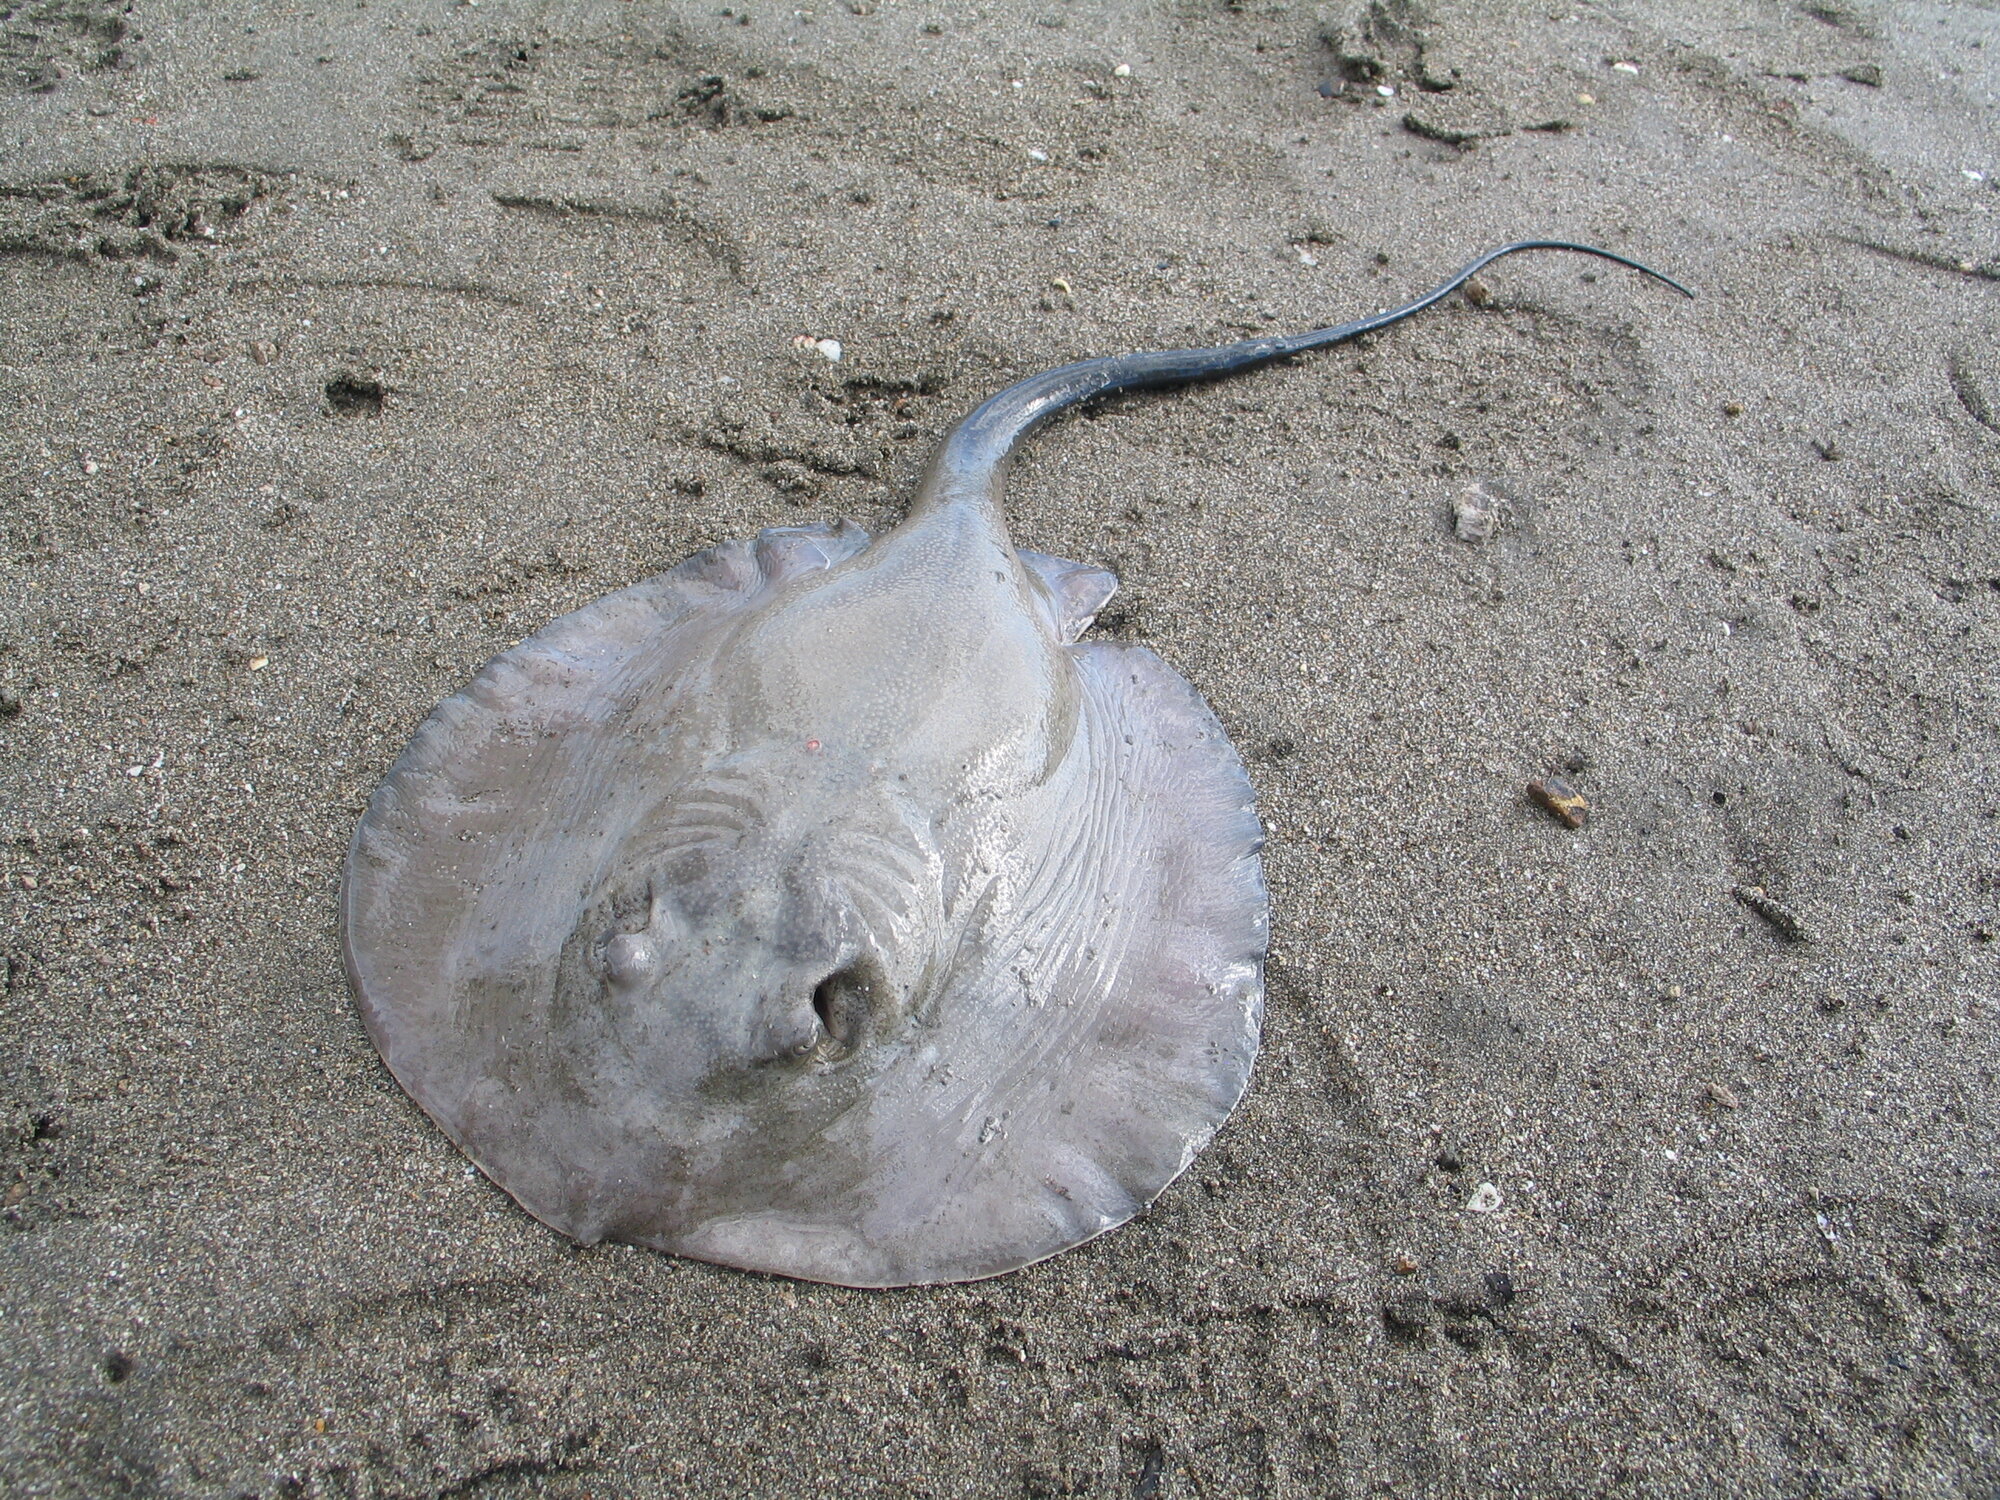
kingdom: Animalia
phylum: Chordata
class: Elasmobranchii
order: Myliobatiformes
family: Potamotrygonidae
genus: Styracura
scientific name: Styracura pacifica
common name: Pacific chupare
